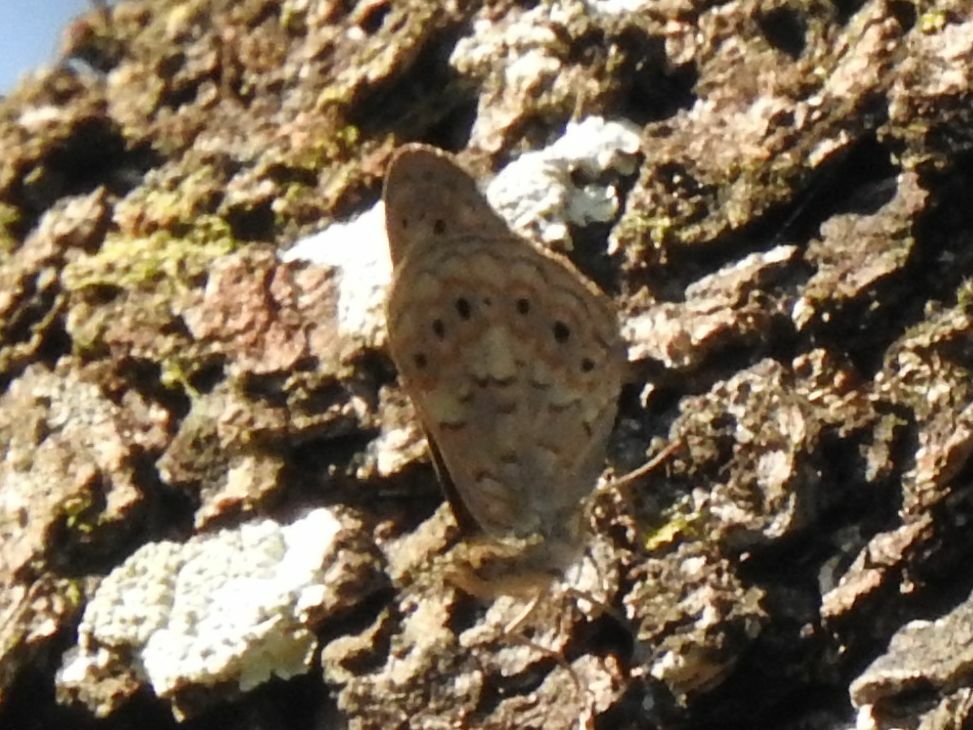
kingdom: Animalia
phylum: Arthropoda
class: Insecta
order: Lepidoptera
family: Nymphalidae
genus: Asterope
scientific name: Asterope boisduvali
